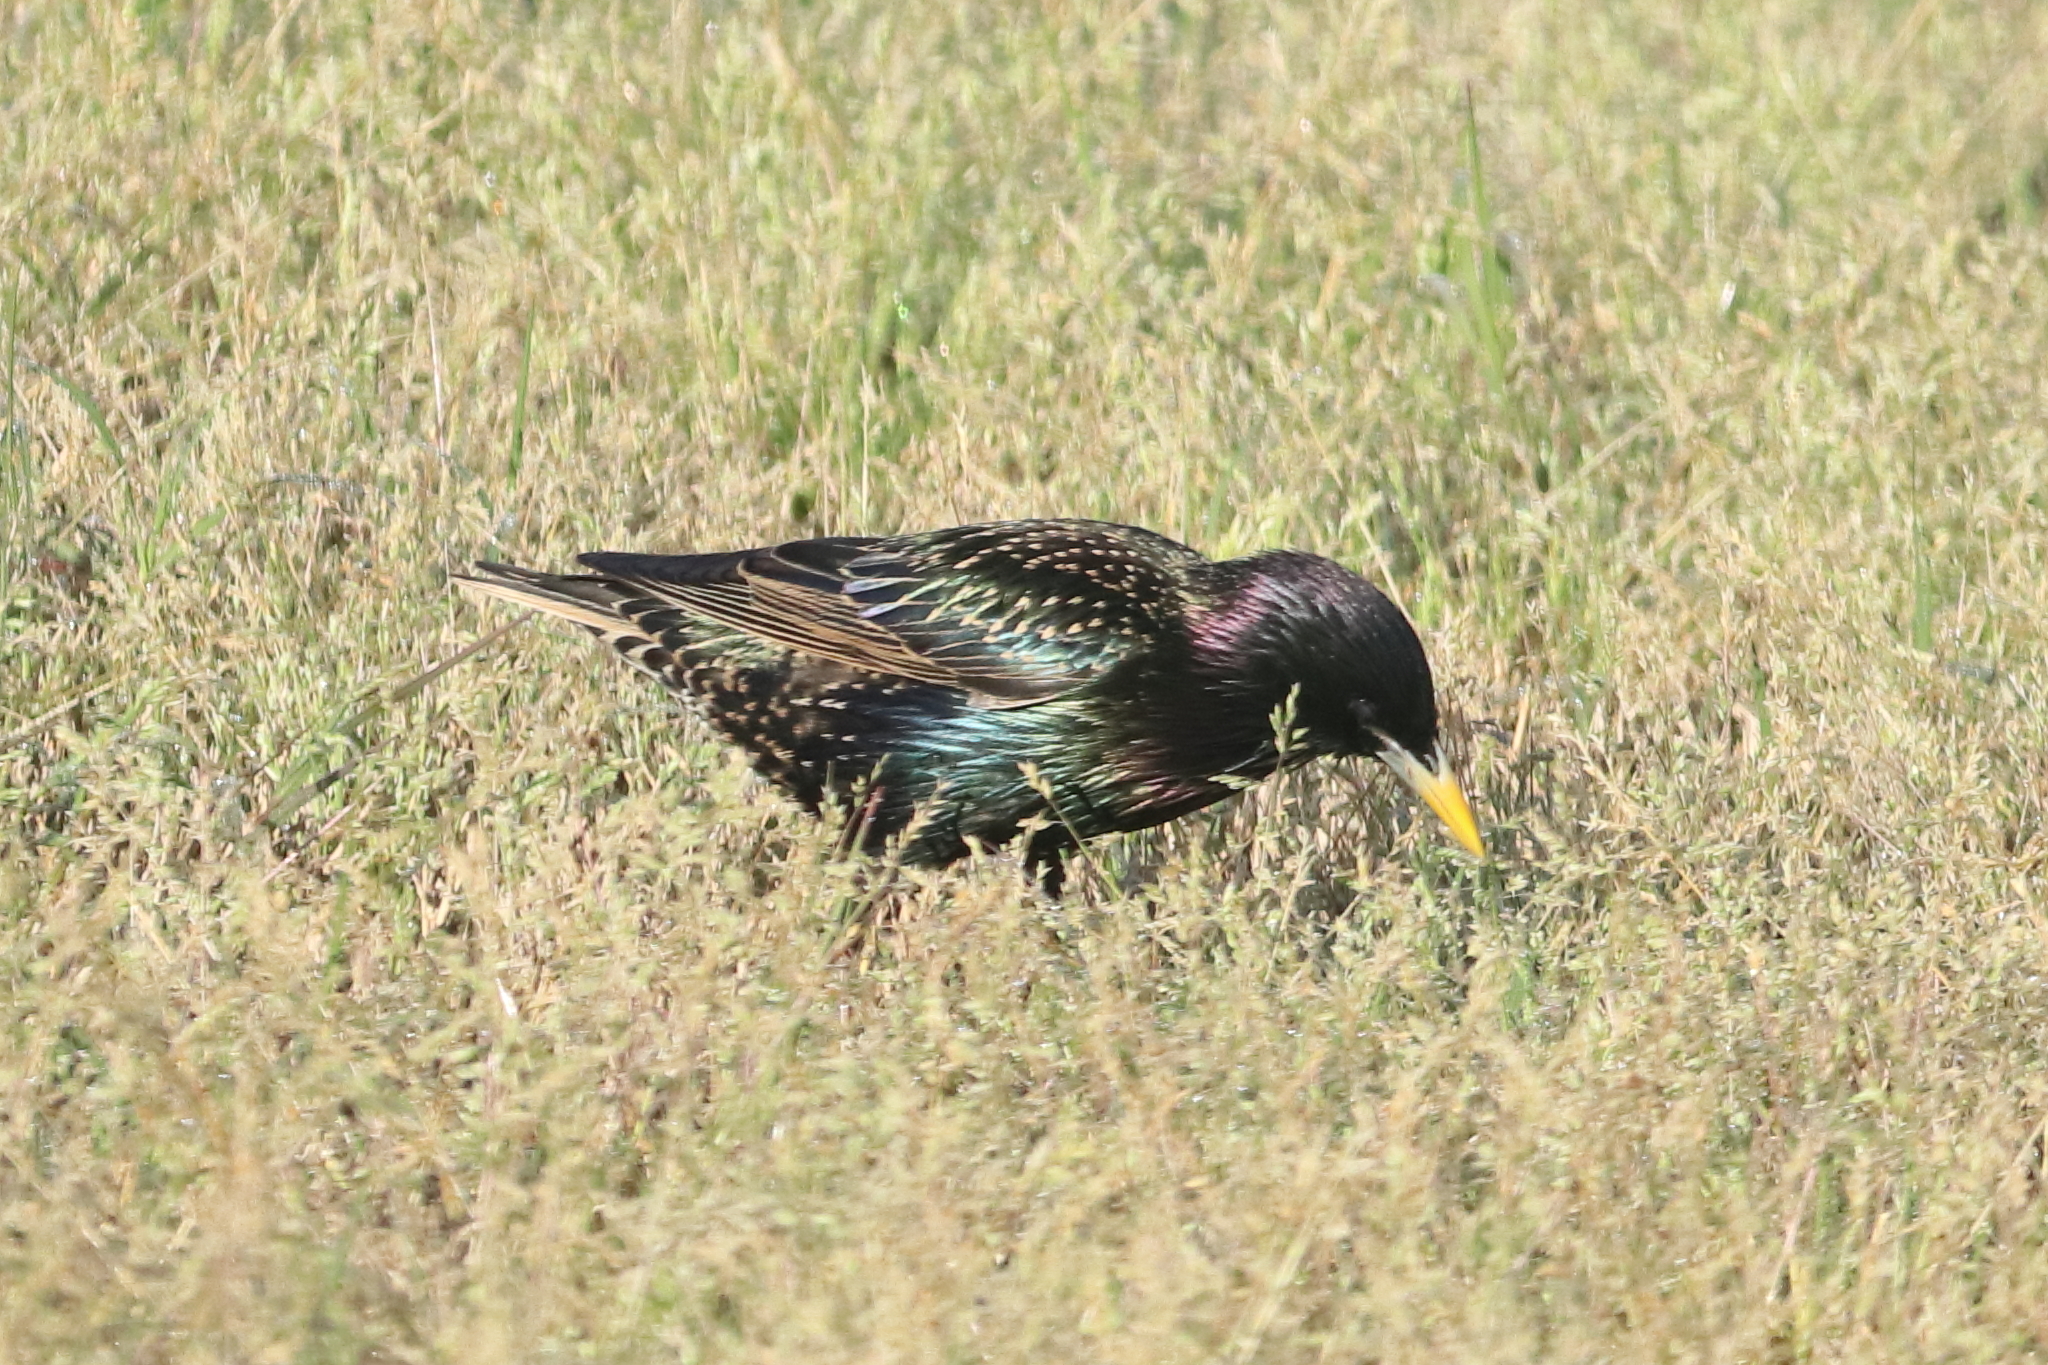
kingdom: Animalia
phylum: Chordata
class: Aves
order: Passeriformes
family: Sturnidae
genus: Sturnus
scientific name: Sturnus vulgaris
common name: Common starling
